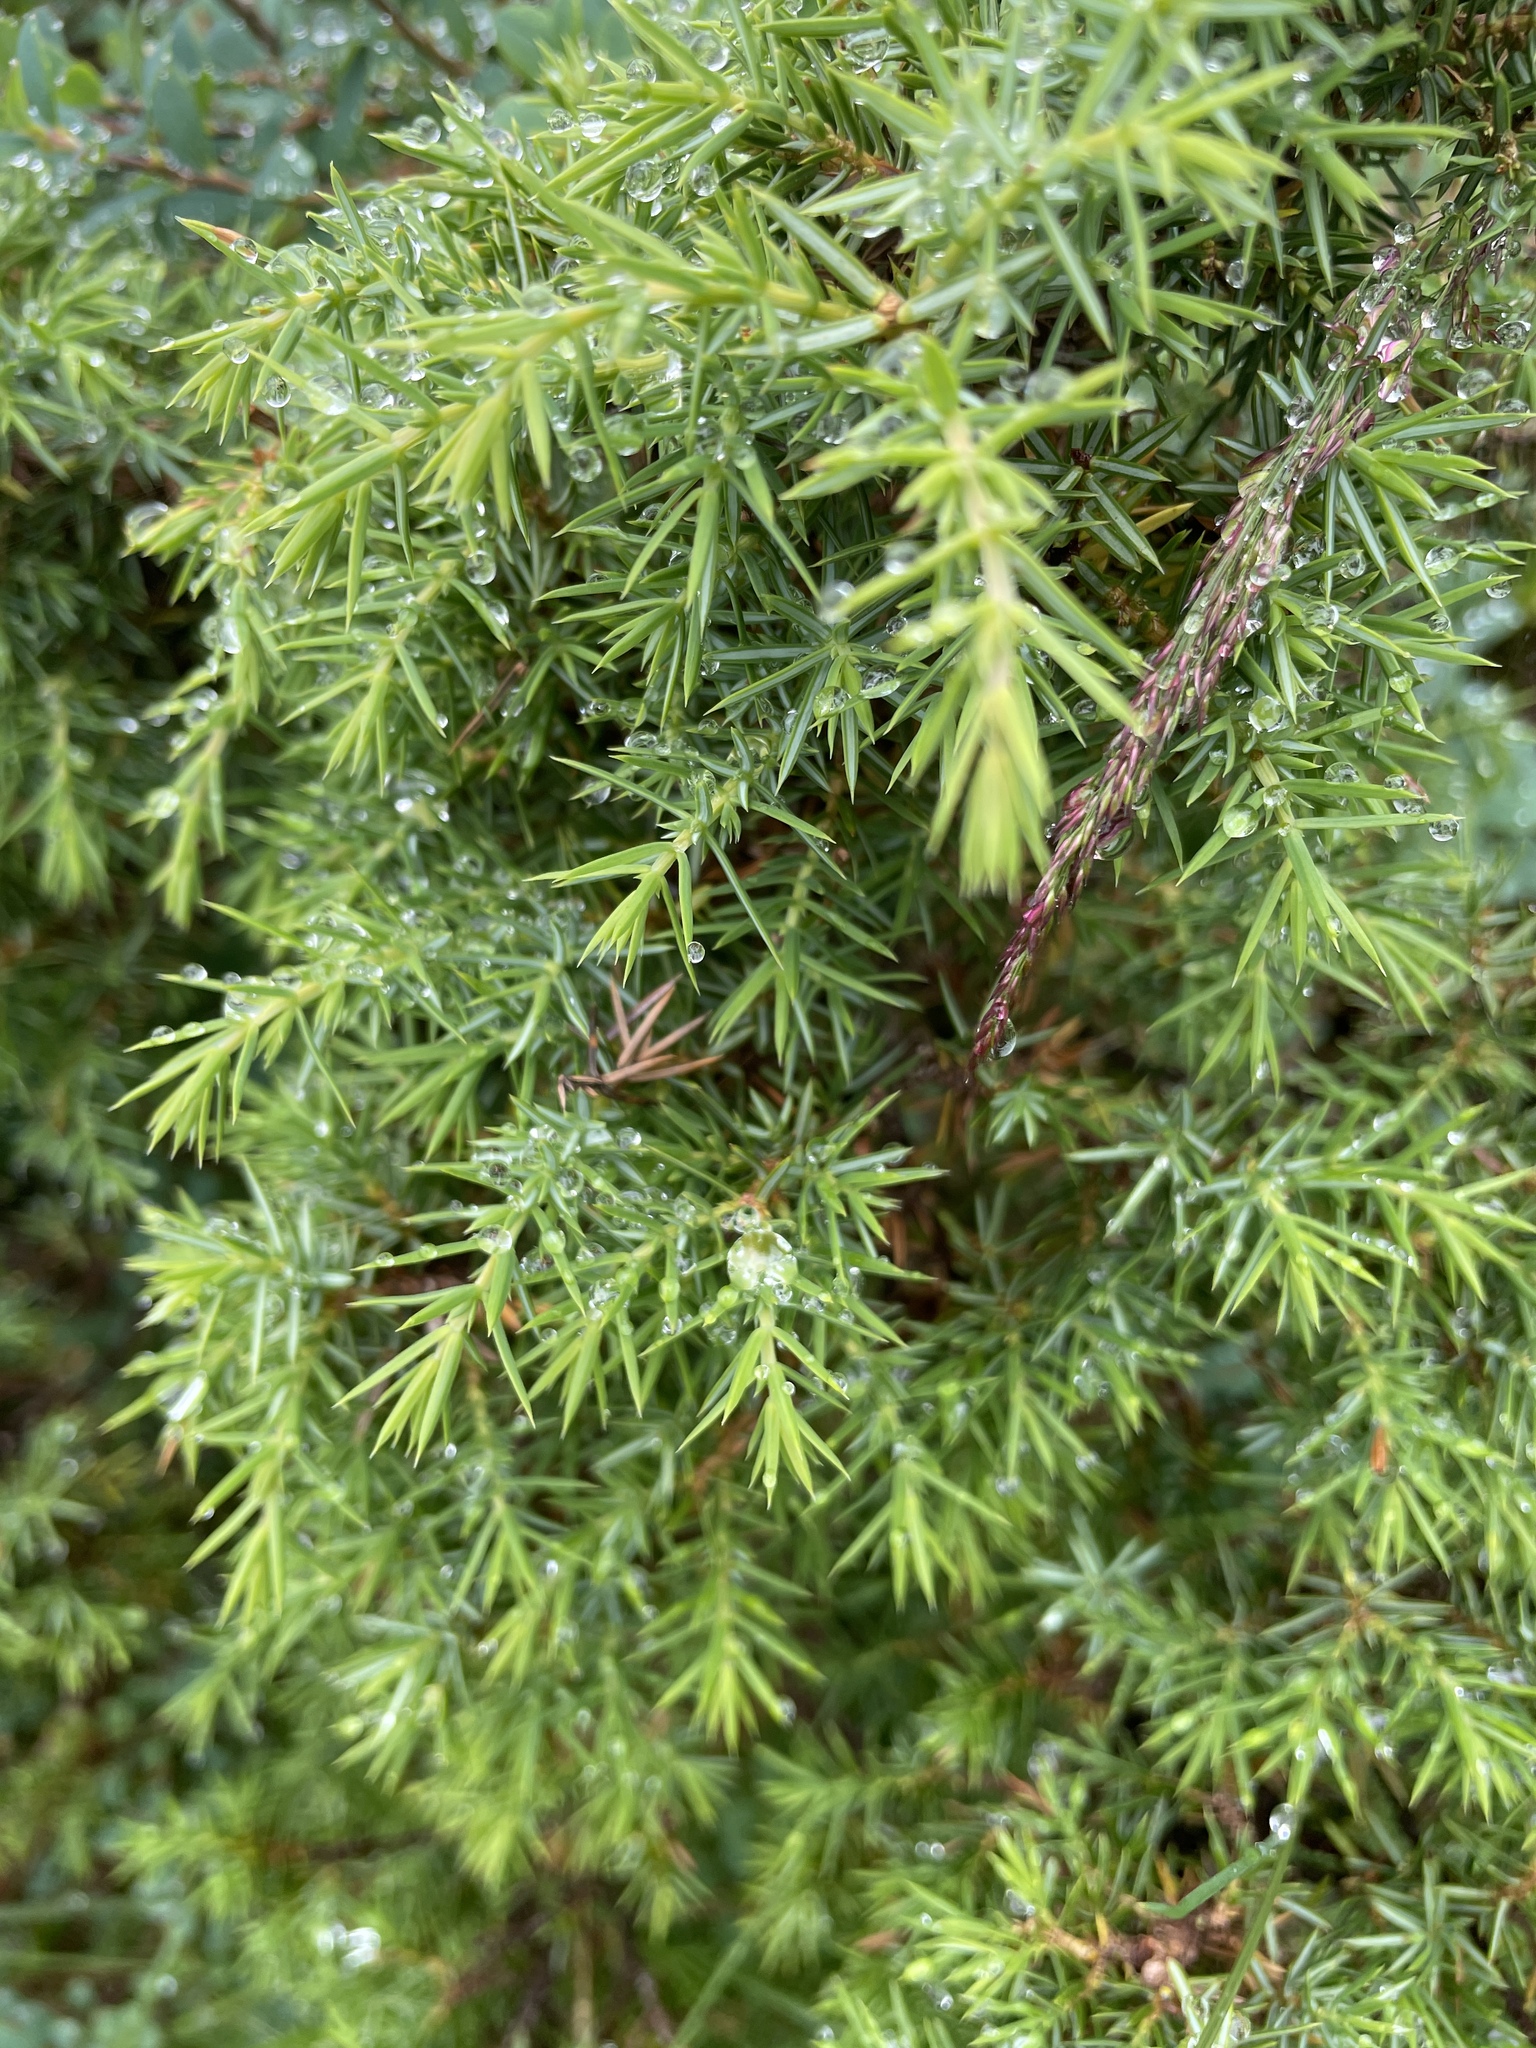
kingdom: Plantae
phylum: Tracheophyta
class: Pinopsida
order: Pinales
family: Cupressaceae
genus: Juniperus
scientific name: Juniperus communis
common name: Common juniper
